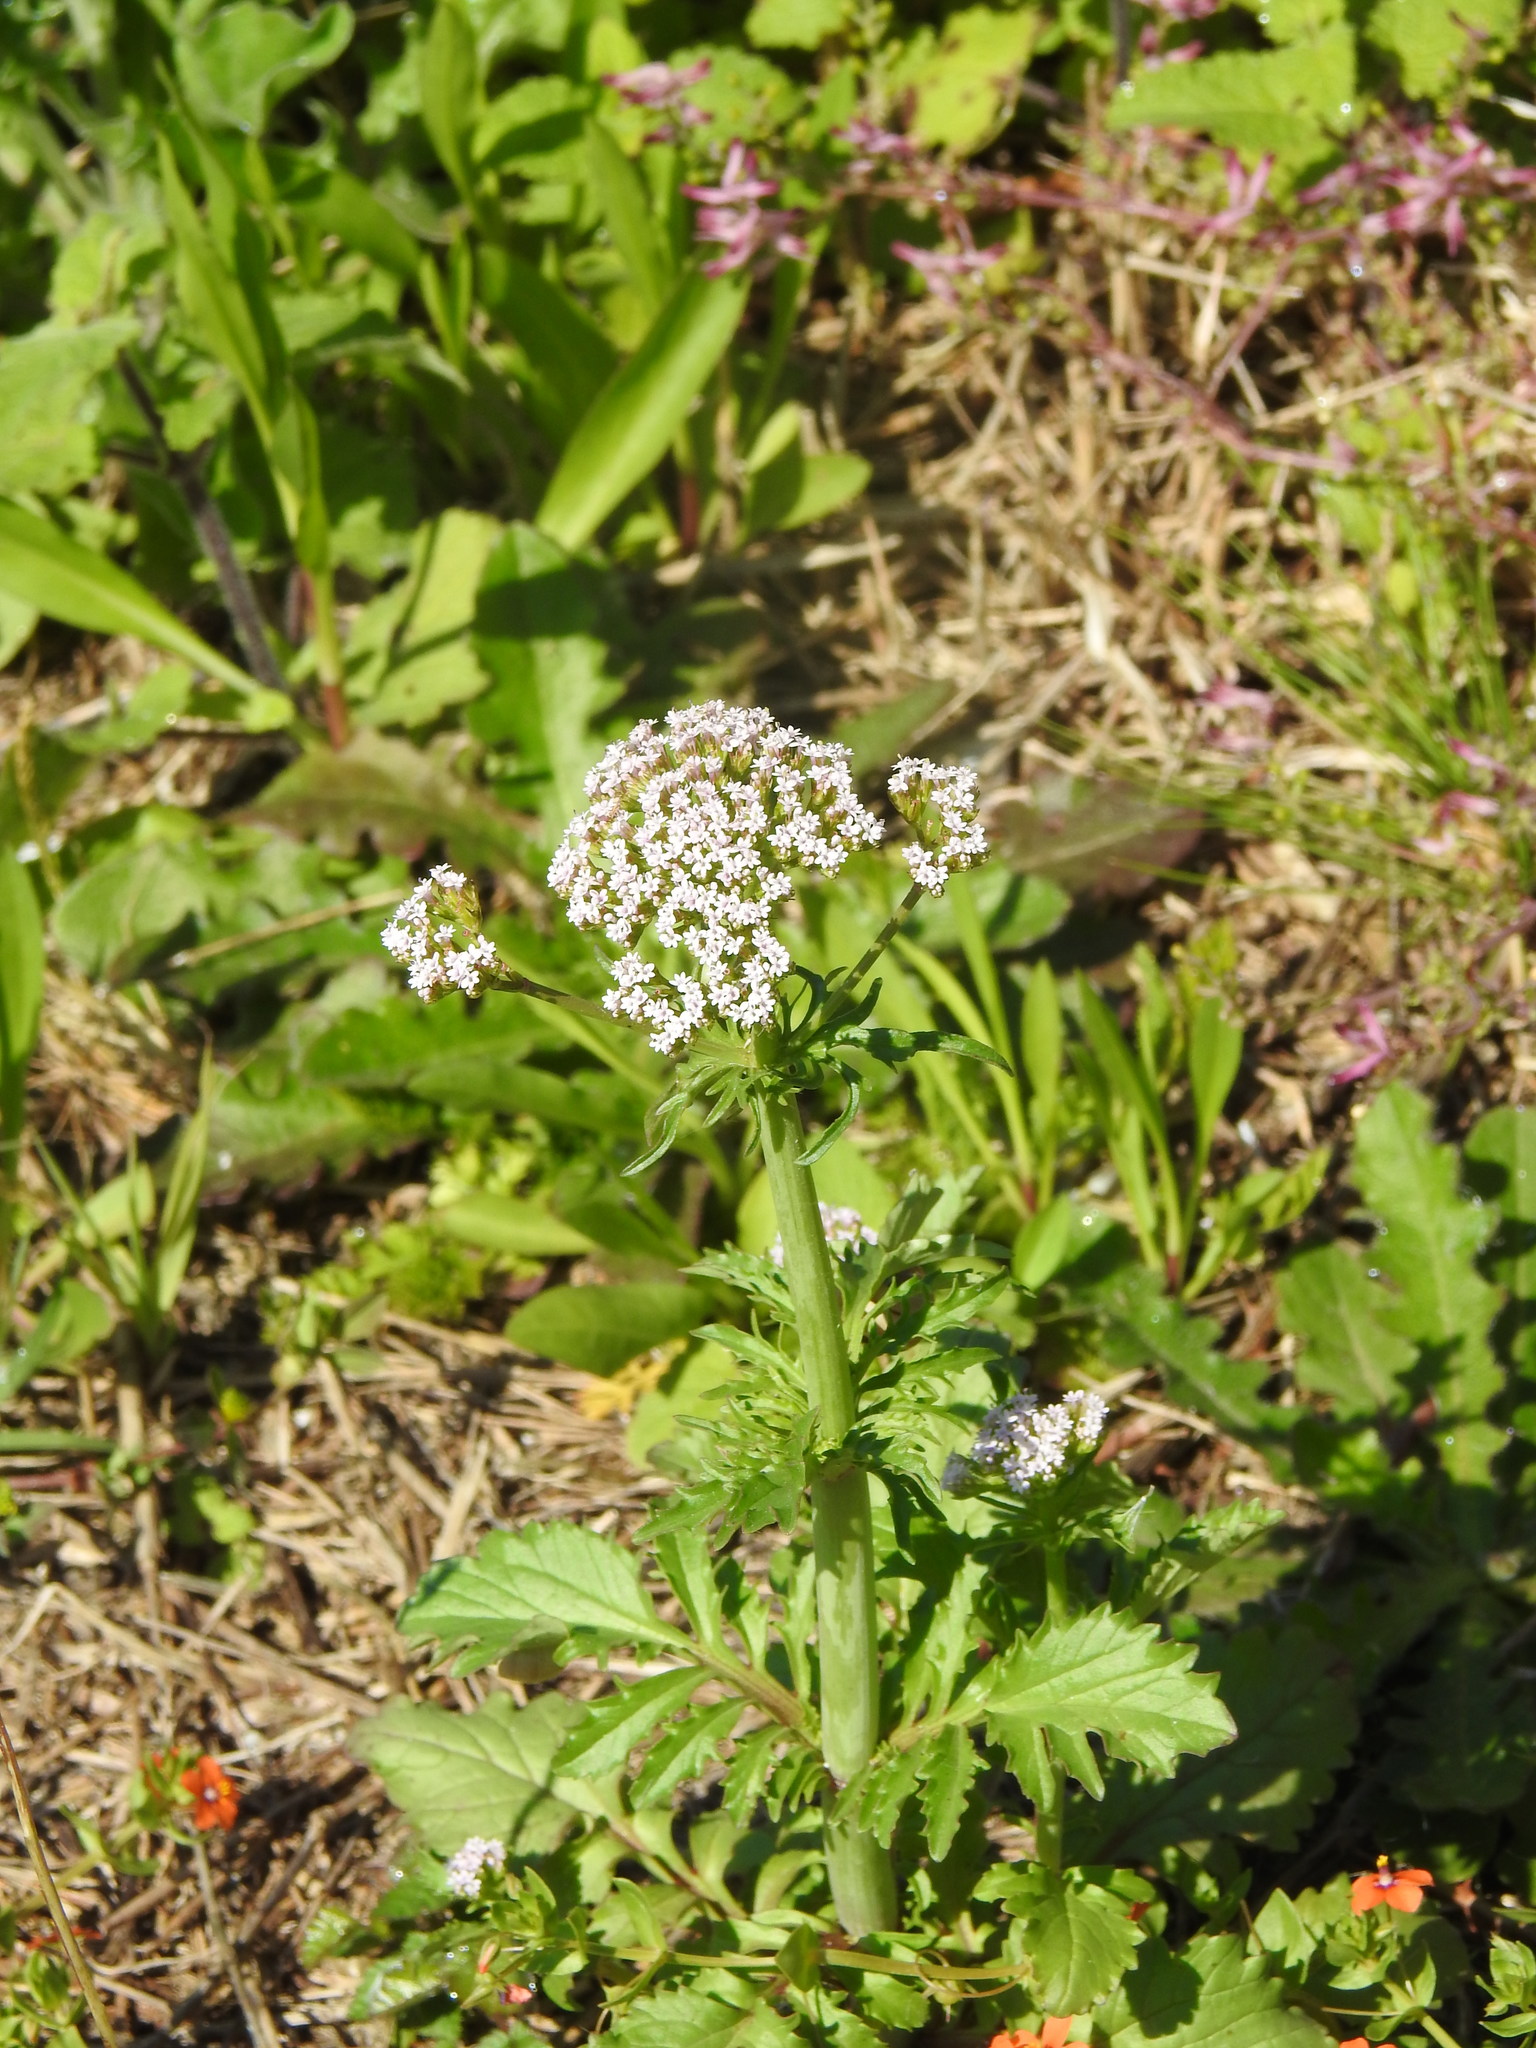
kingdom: Plantae
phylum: Tracheophyta
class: Magnoliopsida
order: Dipsacales
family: Caprifoliaceae
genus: Centranthus
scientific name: Centranthus calcitrapae
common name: Annual valerian
